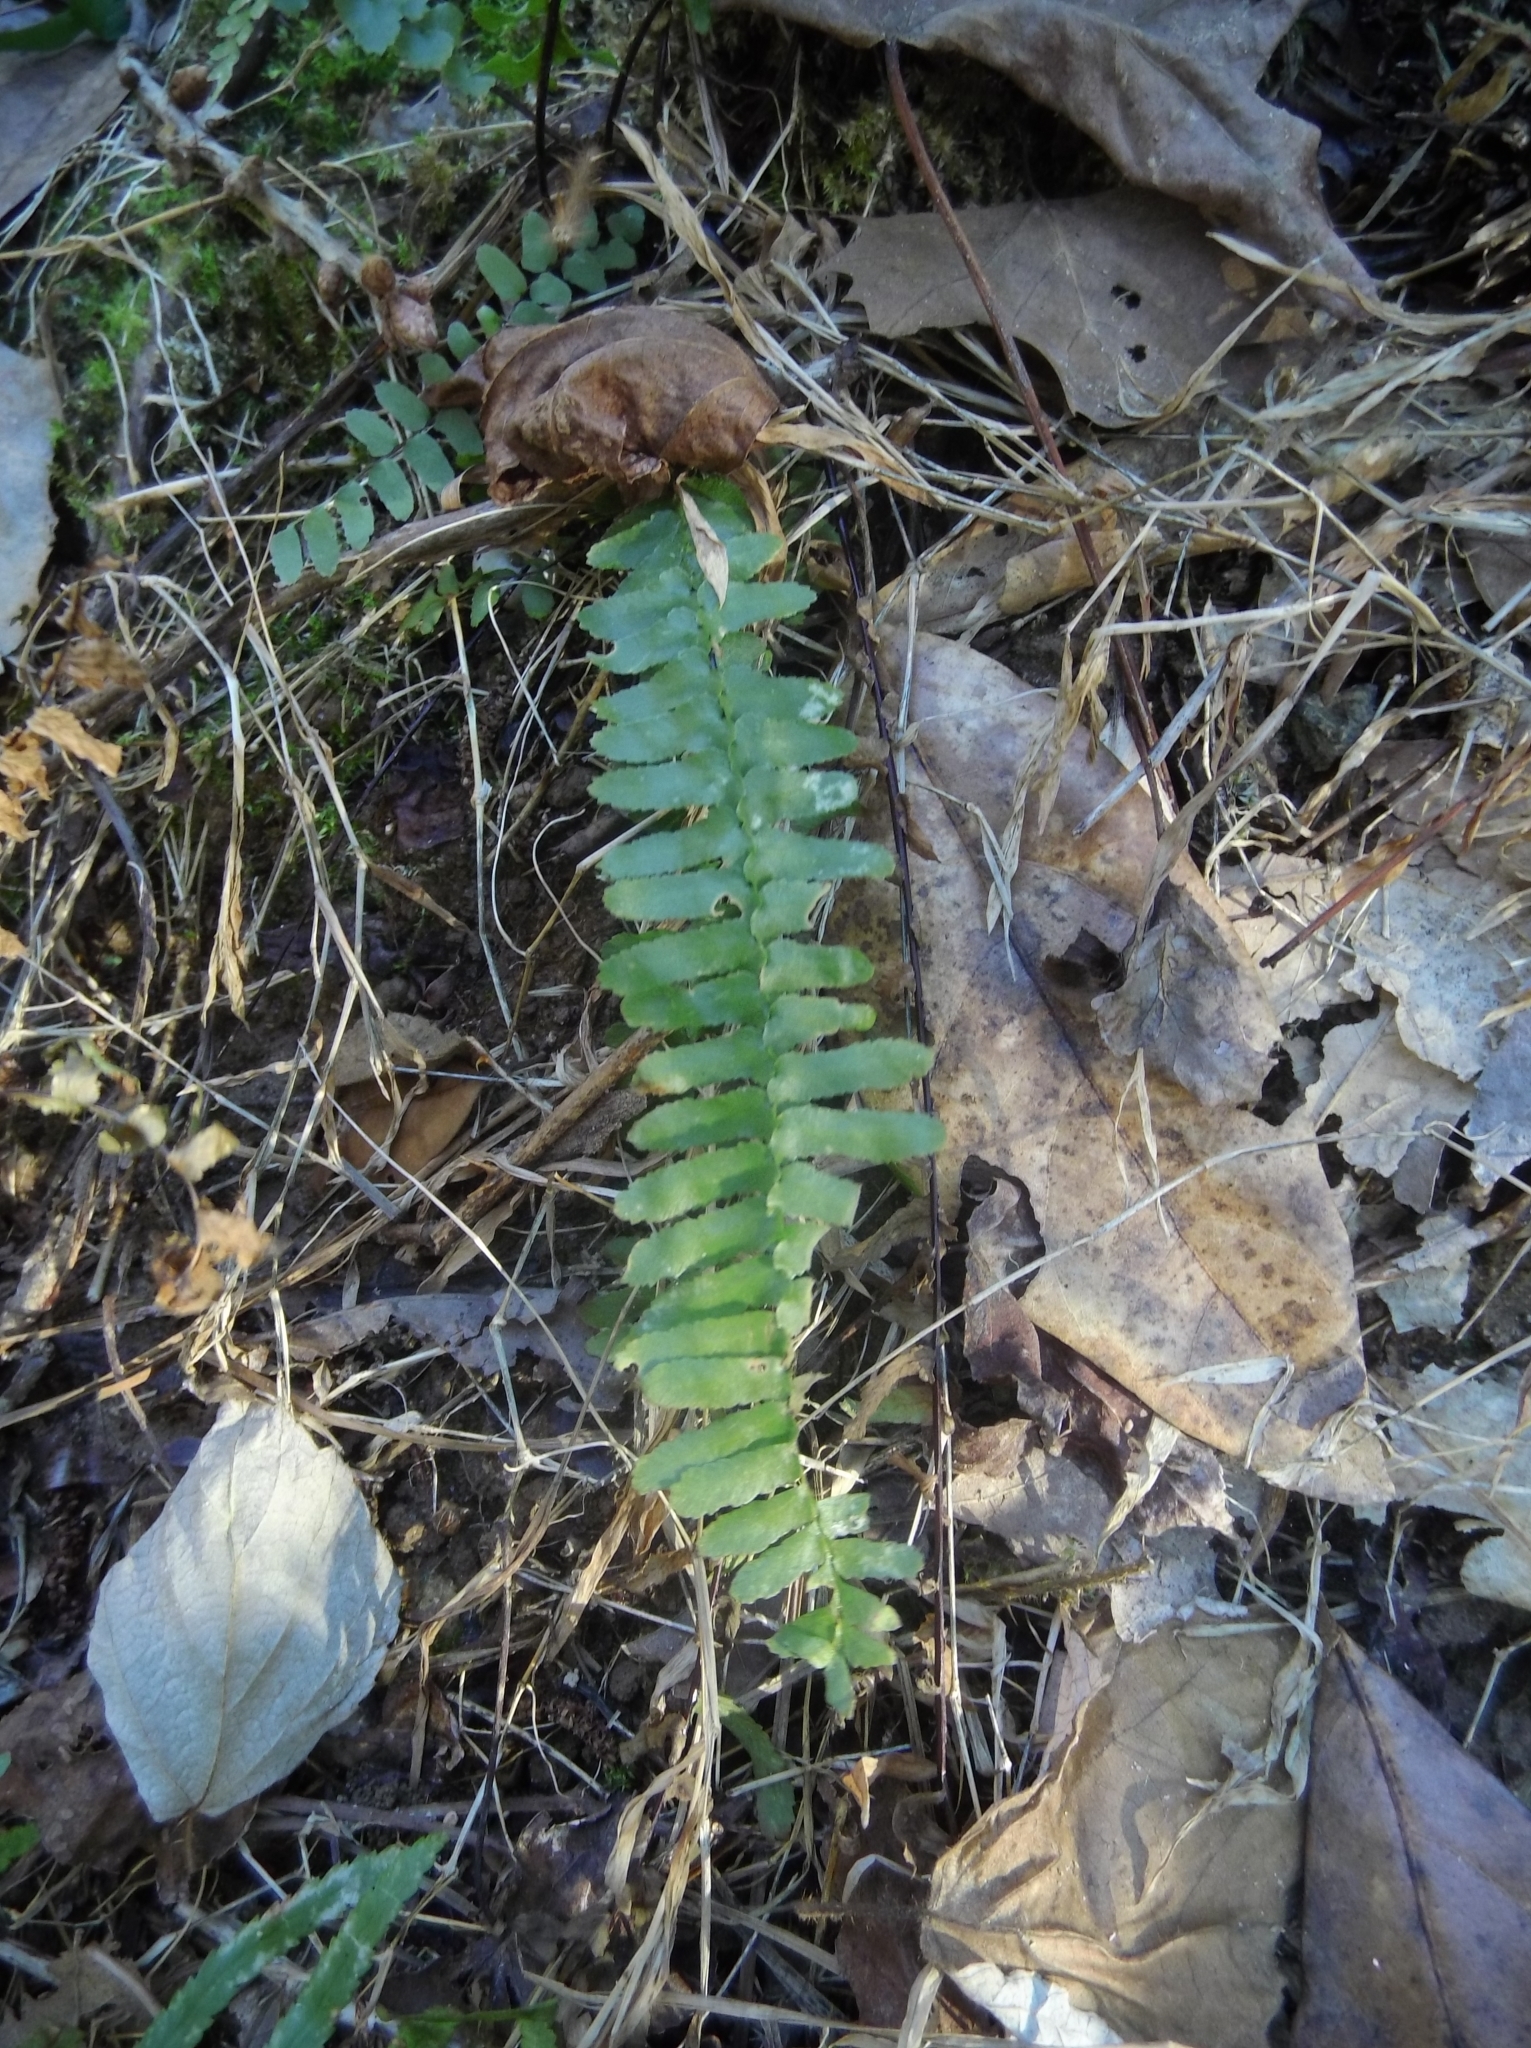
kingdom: Plantae
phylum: Tracheophyta
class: Polypodiopsida
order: Polypodiales
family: Aspleniaceae
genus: Asplenium
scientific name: Asplenium platyneuron
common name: Ebony spleenwort
